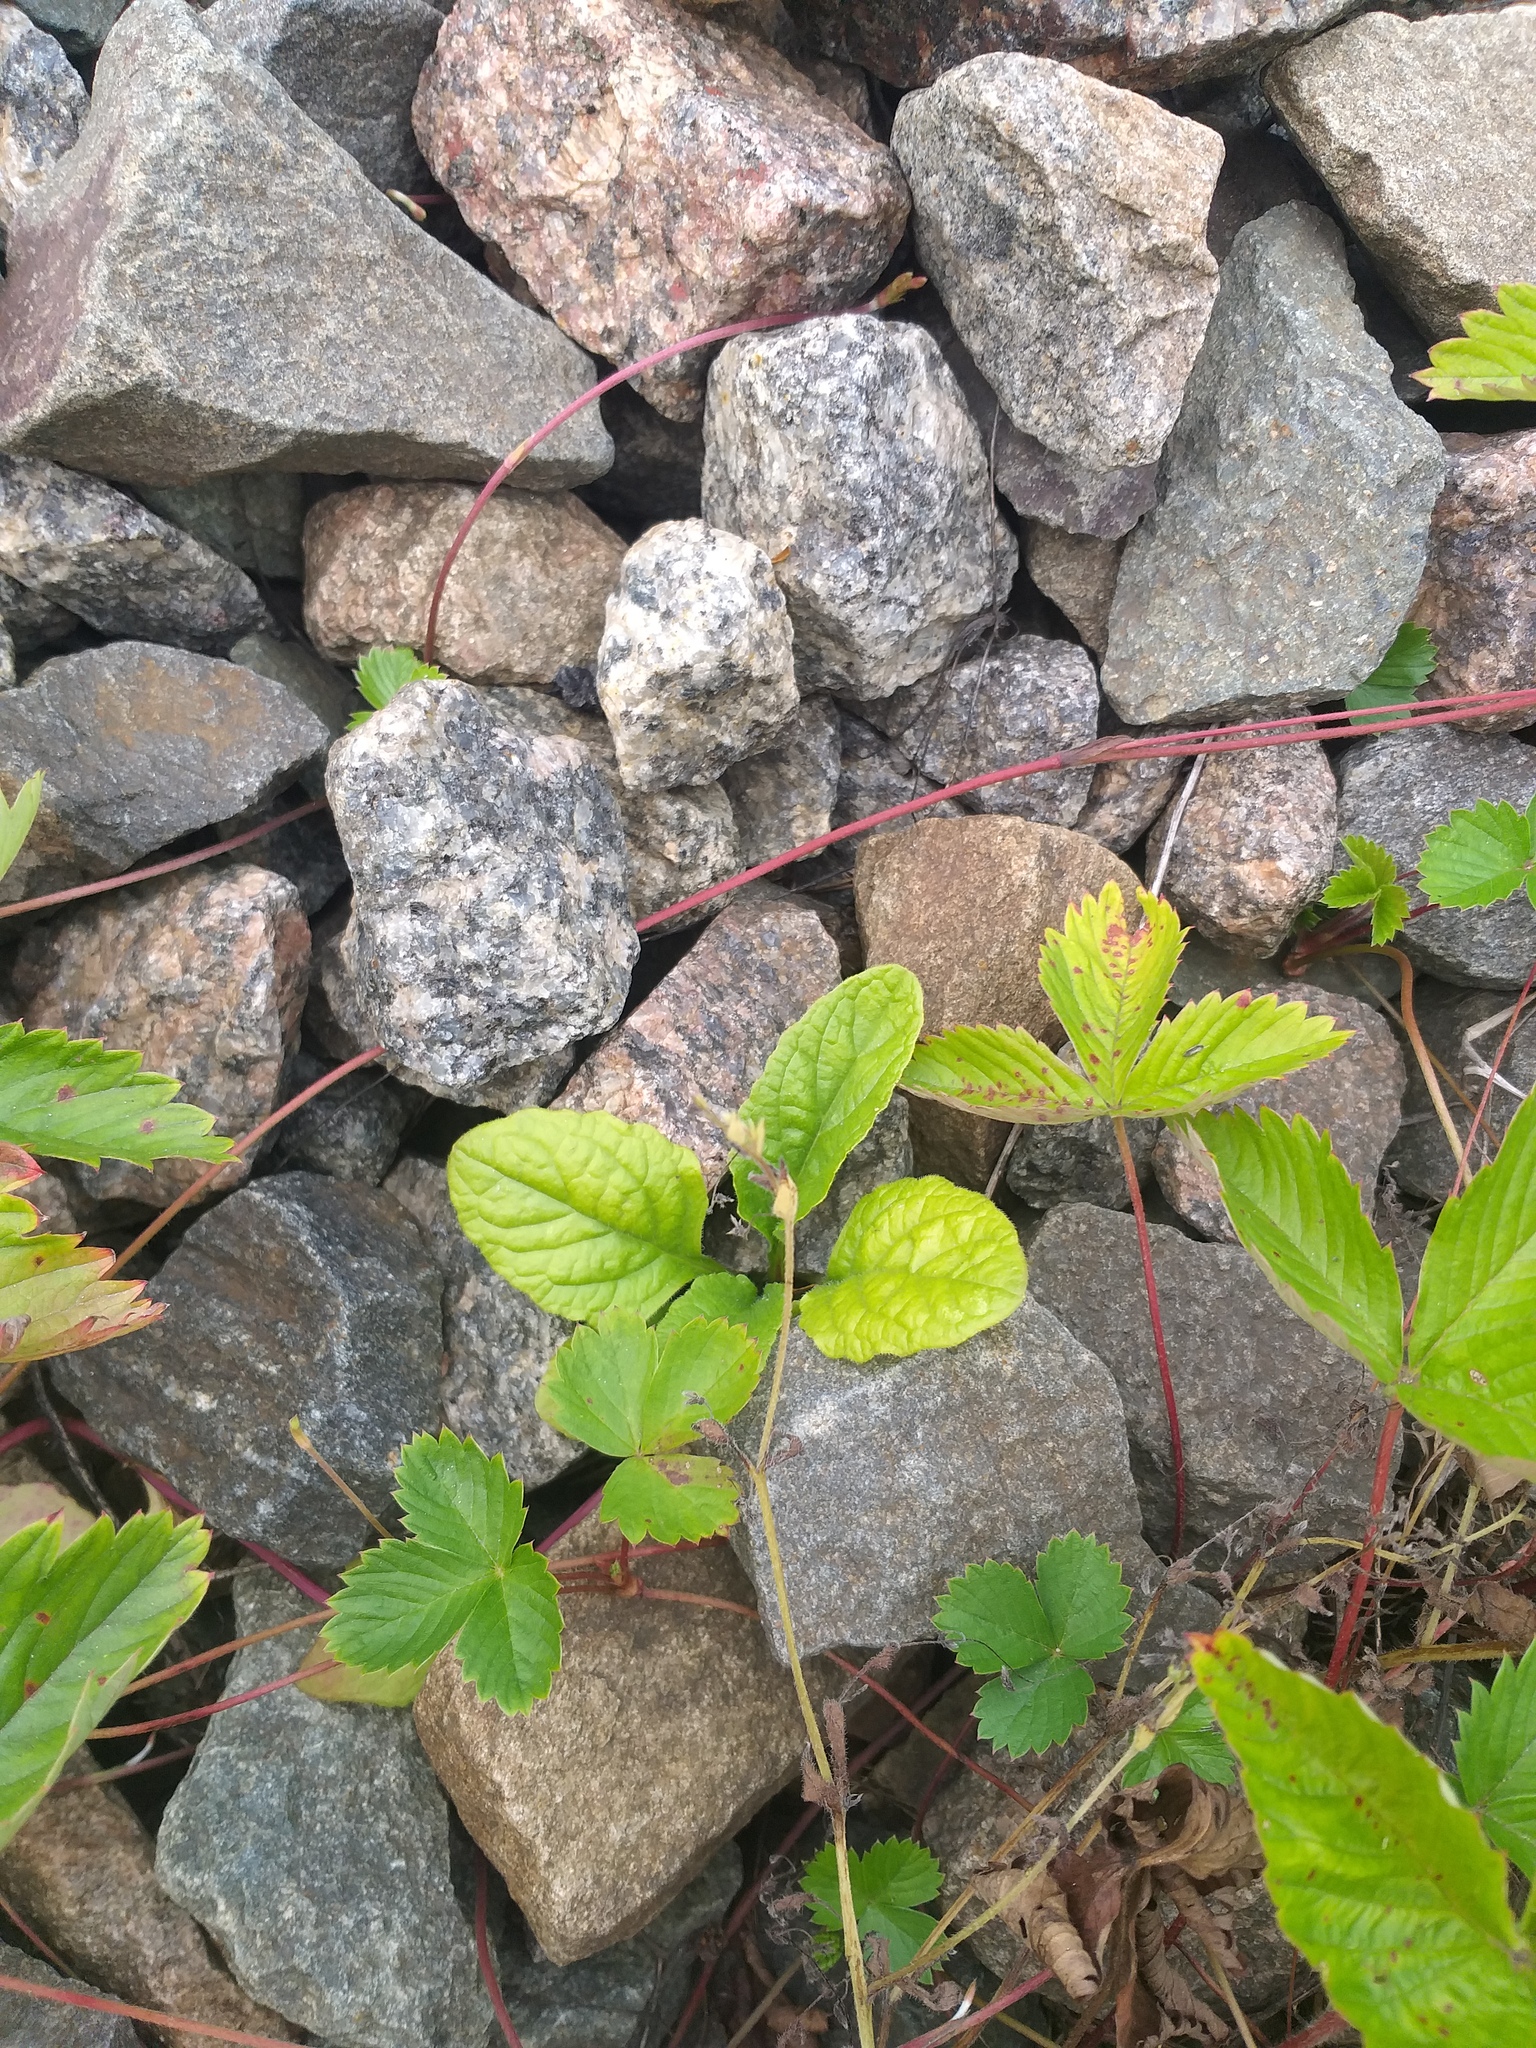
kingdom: Plantae
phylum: Tracheophyta
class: Magnoliopsida
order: Lamiales
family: Lamiaceae
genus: Ajuga
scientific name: Ajuga reptans
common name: Bugle
